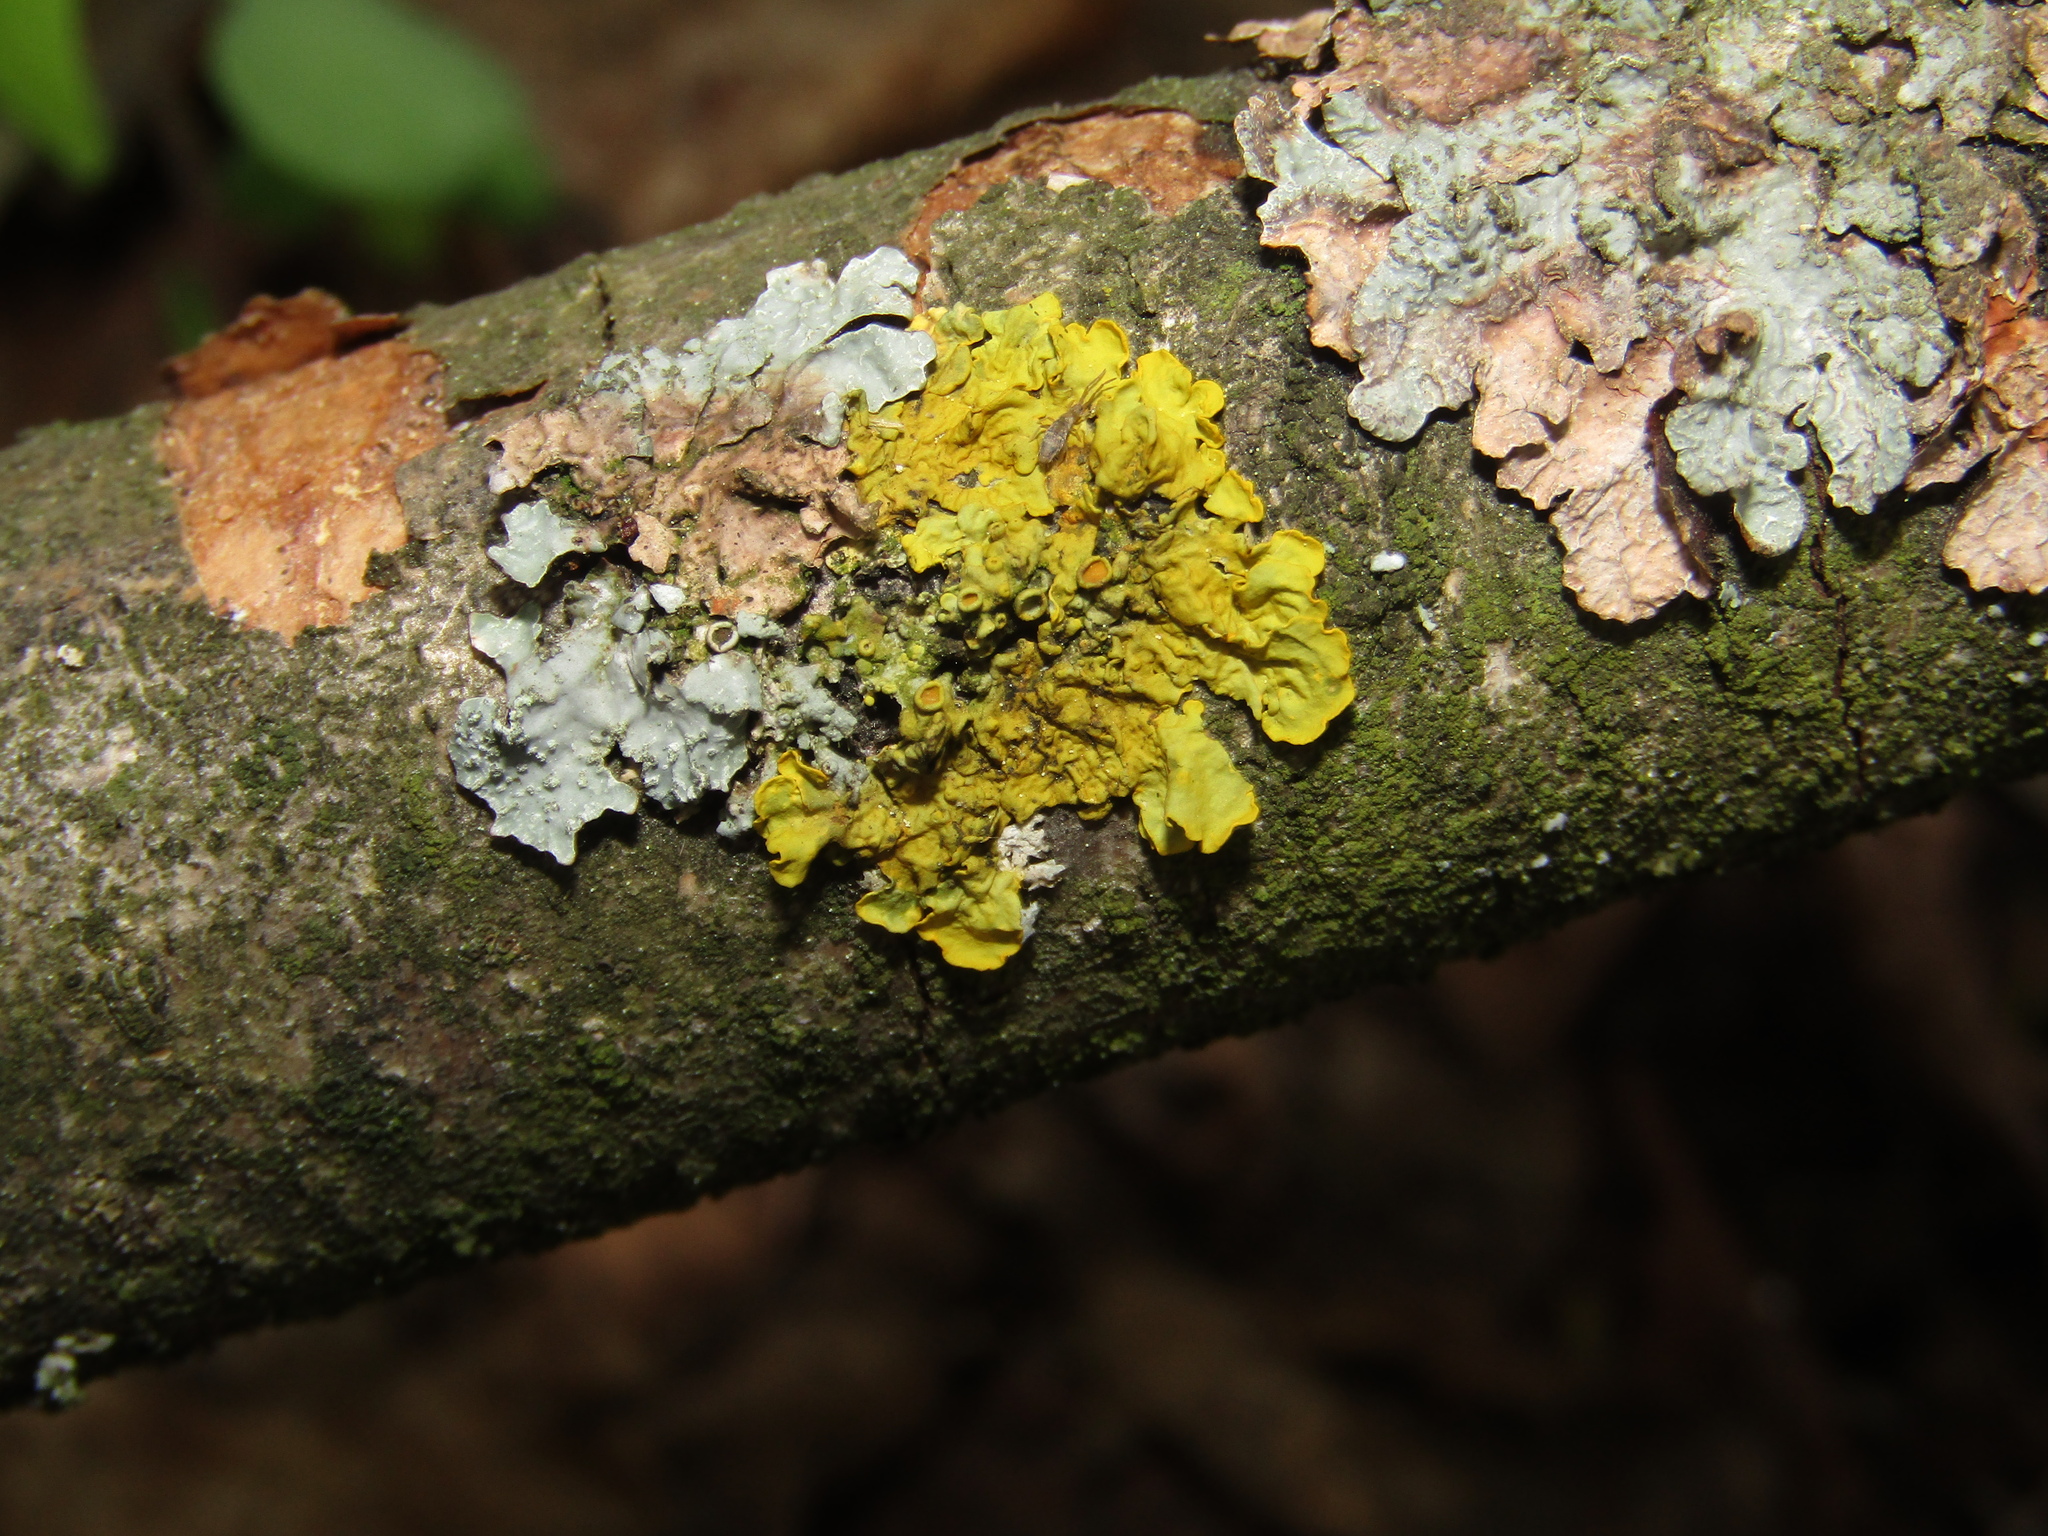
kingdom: Fungi
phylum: Ascomycota
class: Lecanoromycetes
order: Teloschistales
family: Teloschistaceae
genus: Xanthoria
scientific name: Xanthoria parietina
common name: Common orange lichen
